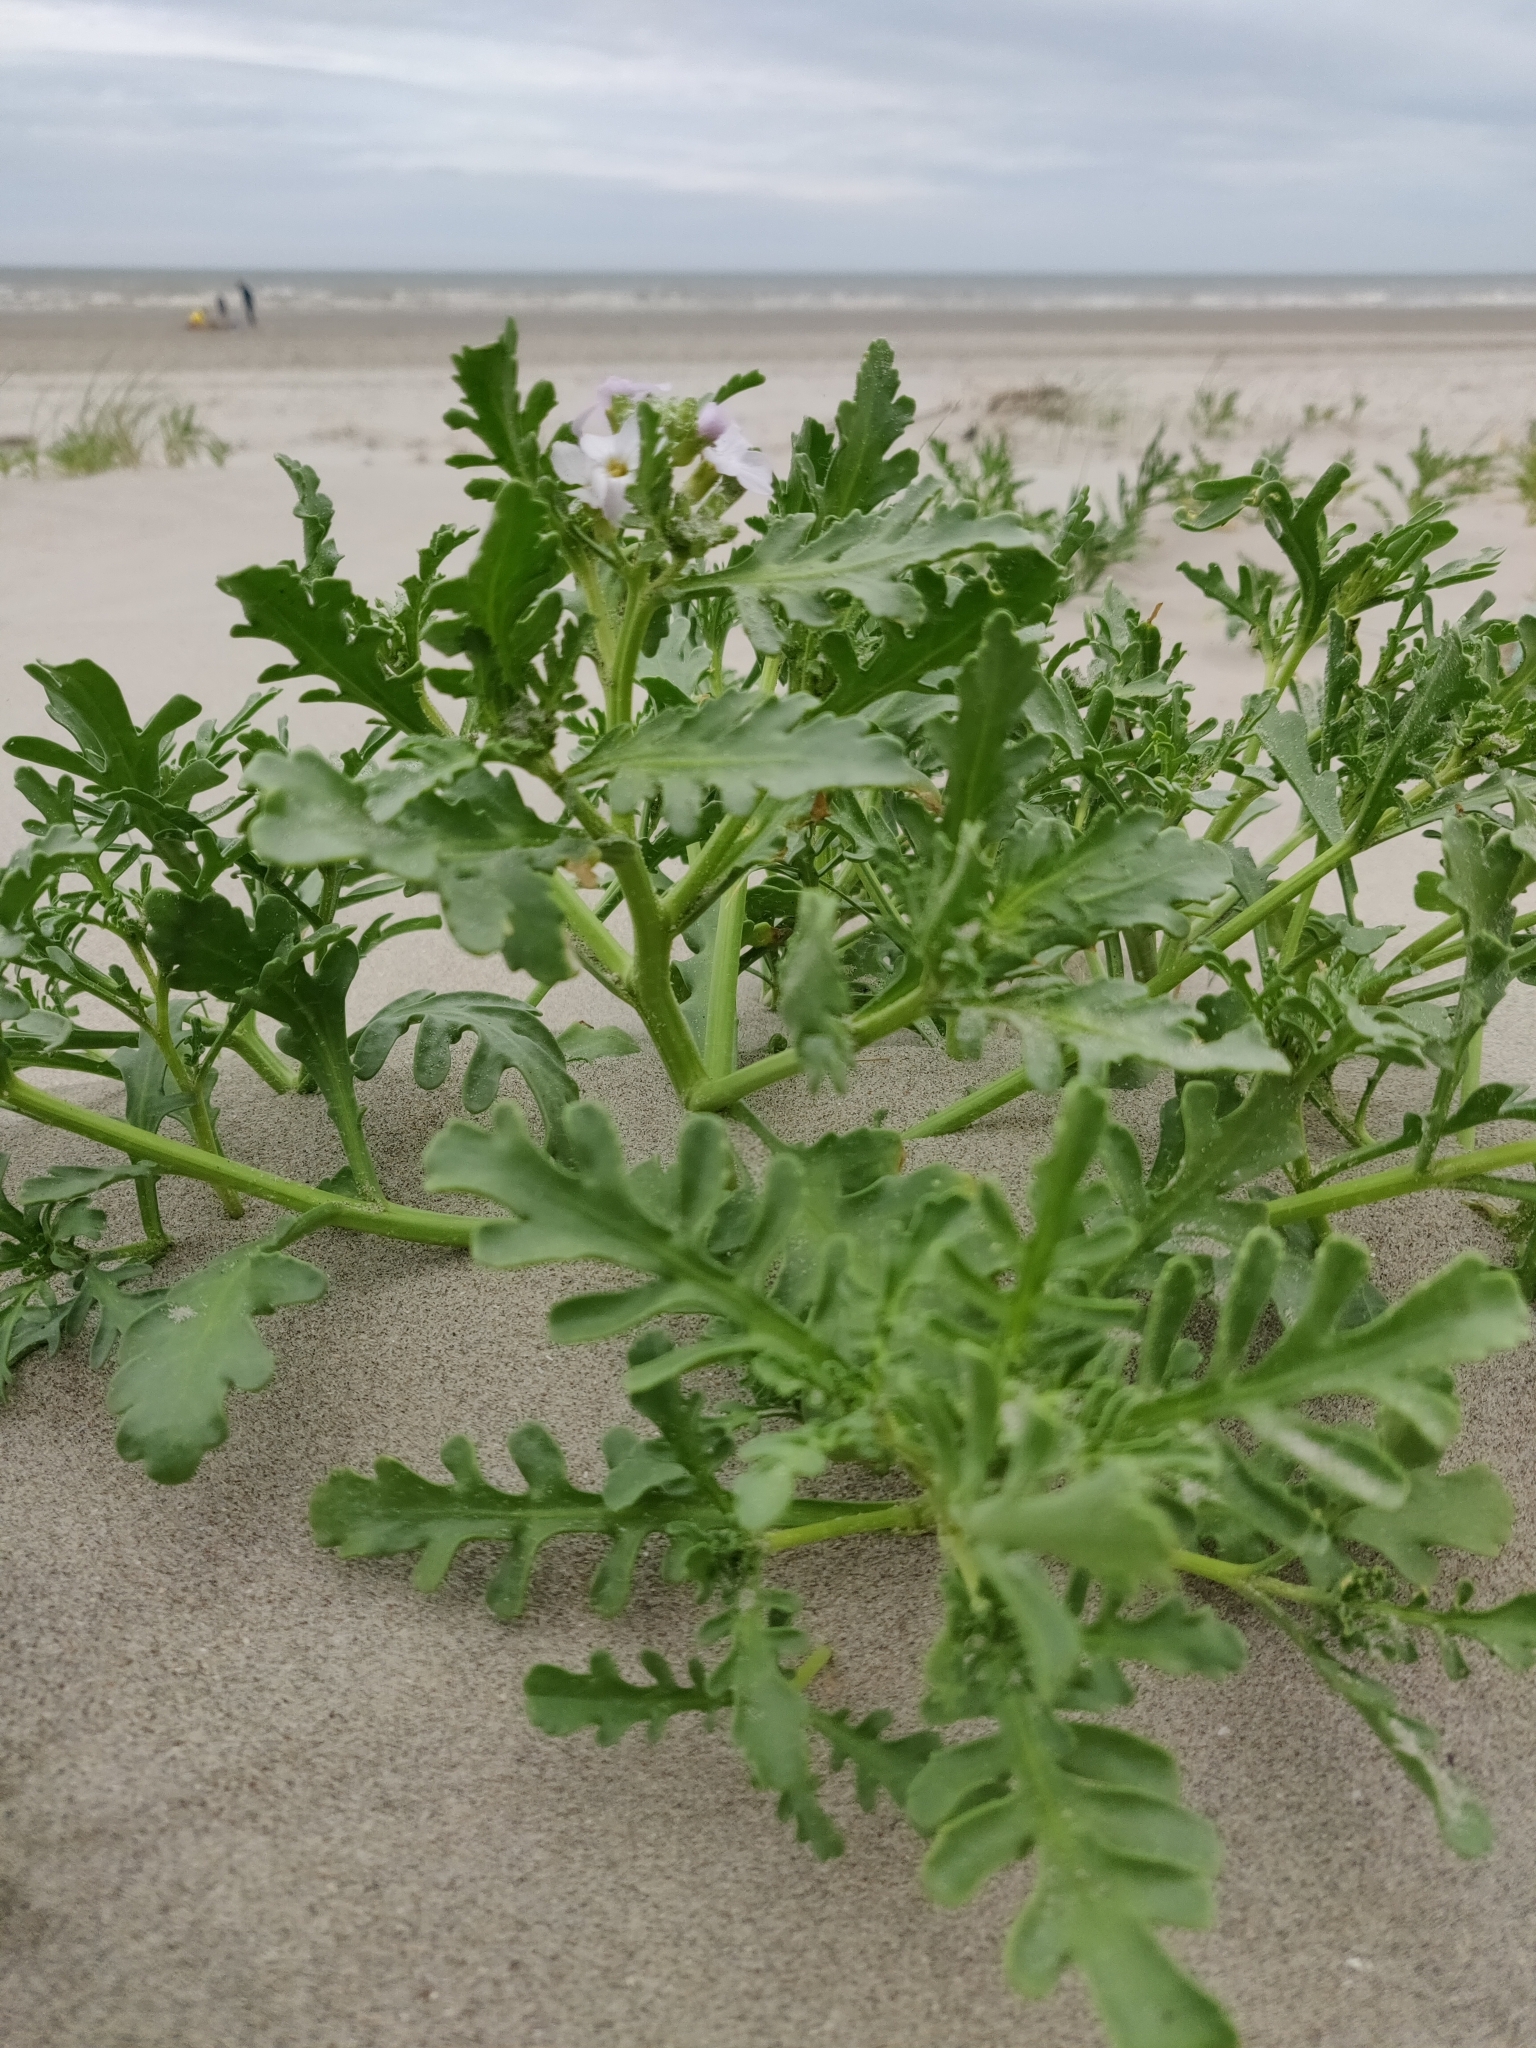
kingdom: Plantae
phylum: Tracheophyta
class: Magnoliopsida
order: Brassicales
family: Brassicaceae
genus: Cakile
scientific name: Cakile maritima
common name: Sea rocket
